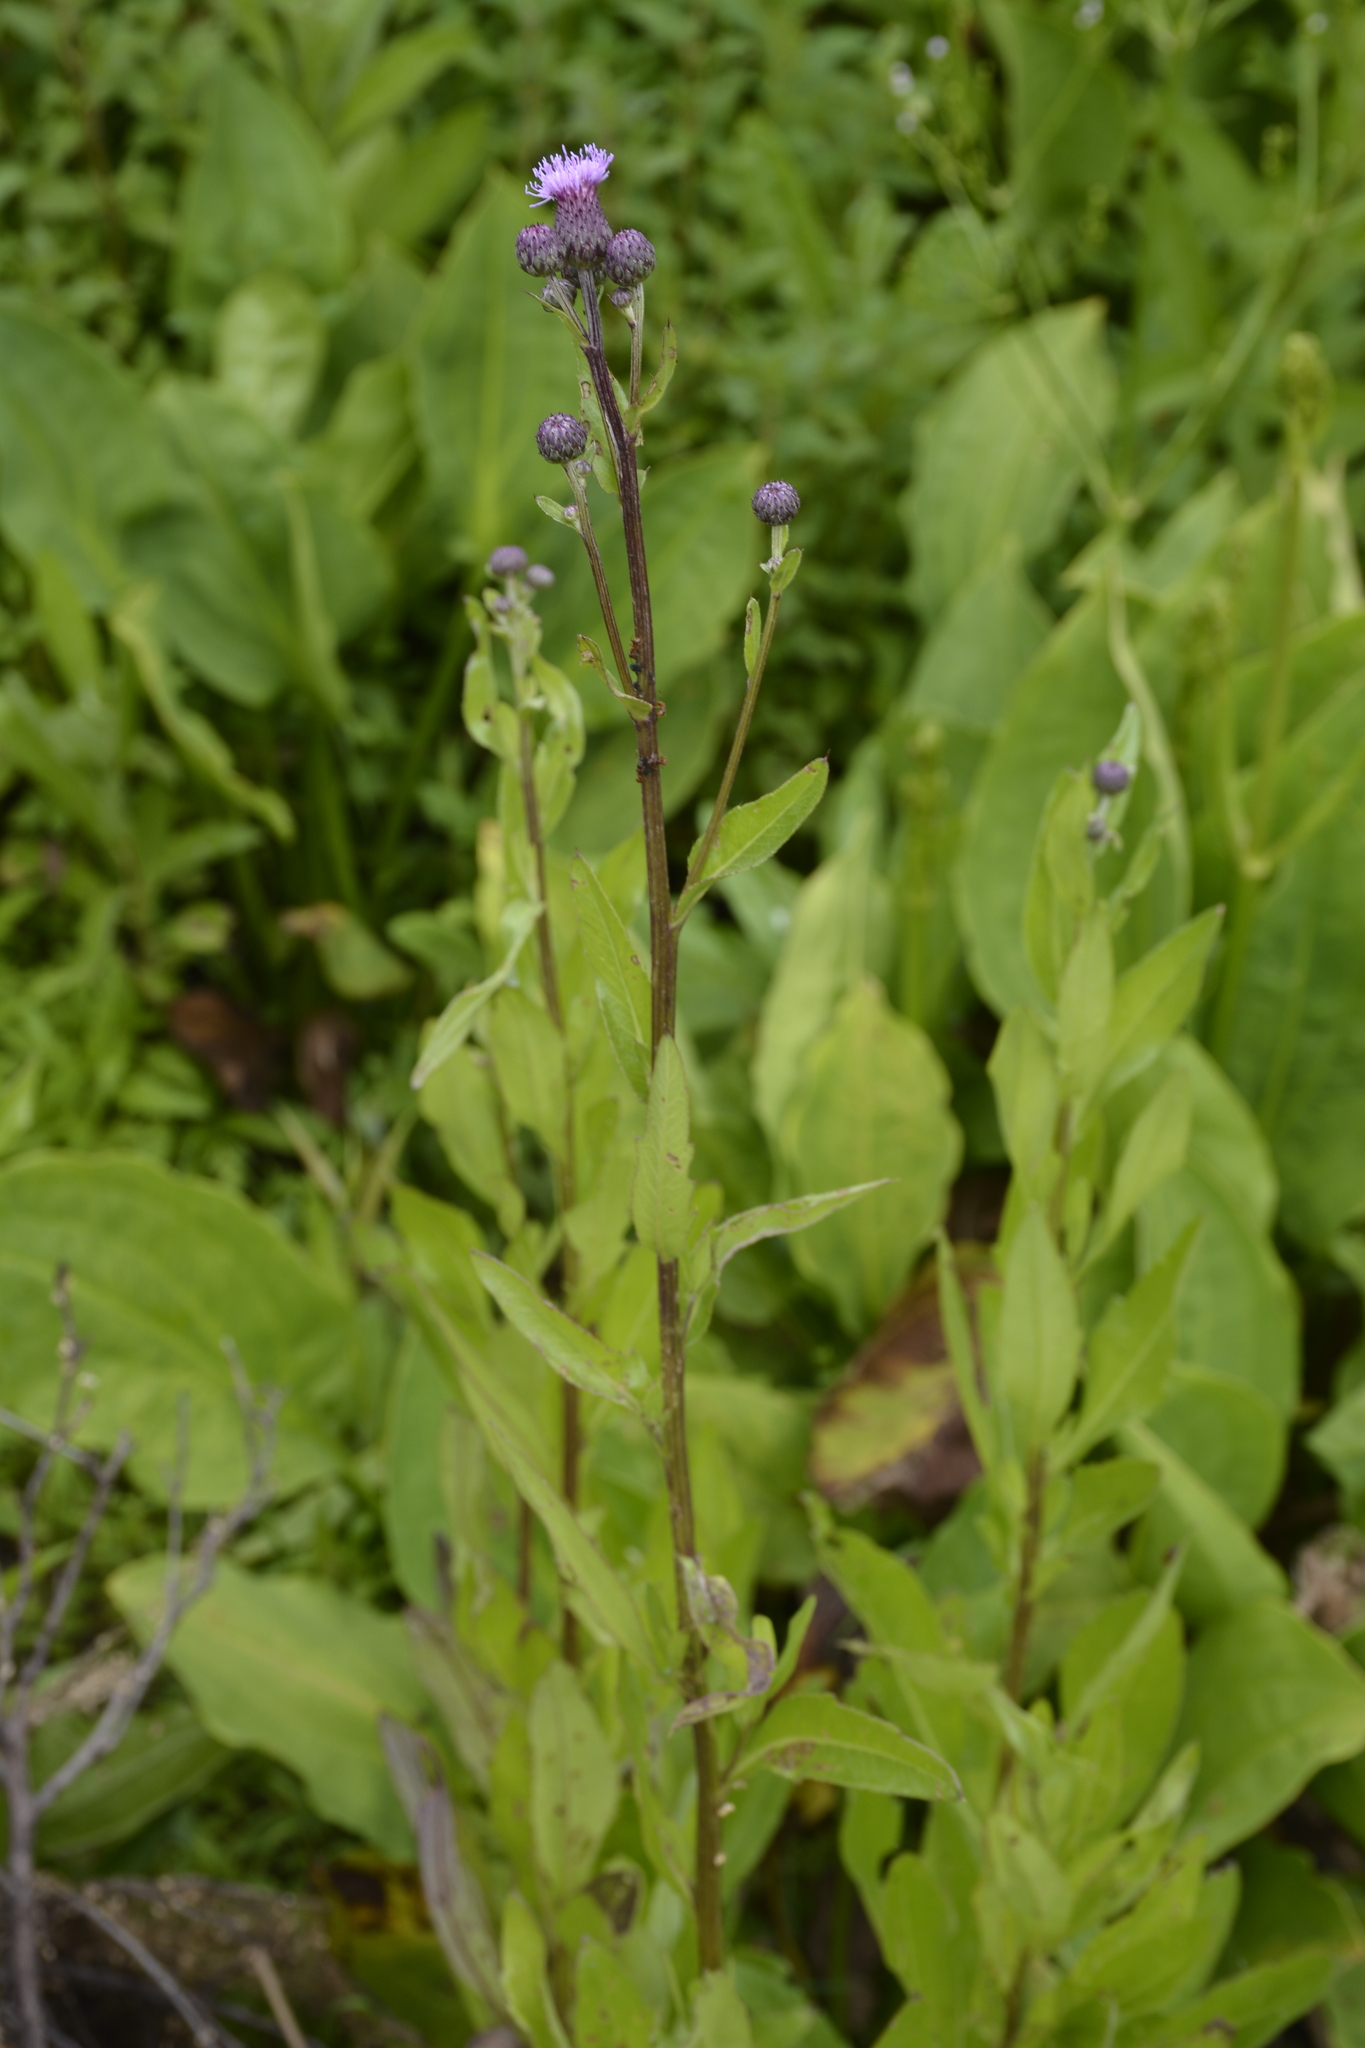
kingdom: Plantae
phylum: Tracheophyta
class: Magnoliopsida
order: Asterales
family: Asteraceae
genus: Cirsium
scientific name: Cirsium arvense
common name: Creeping thistle
